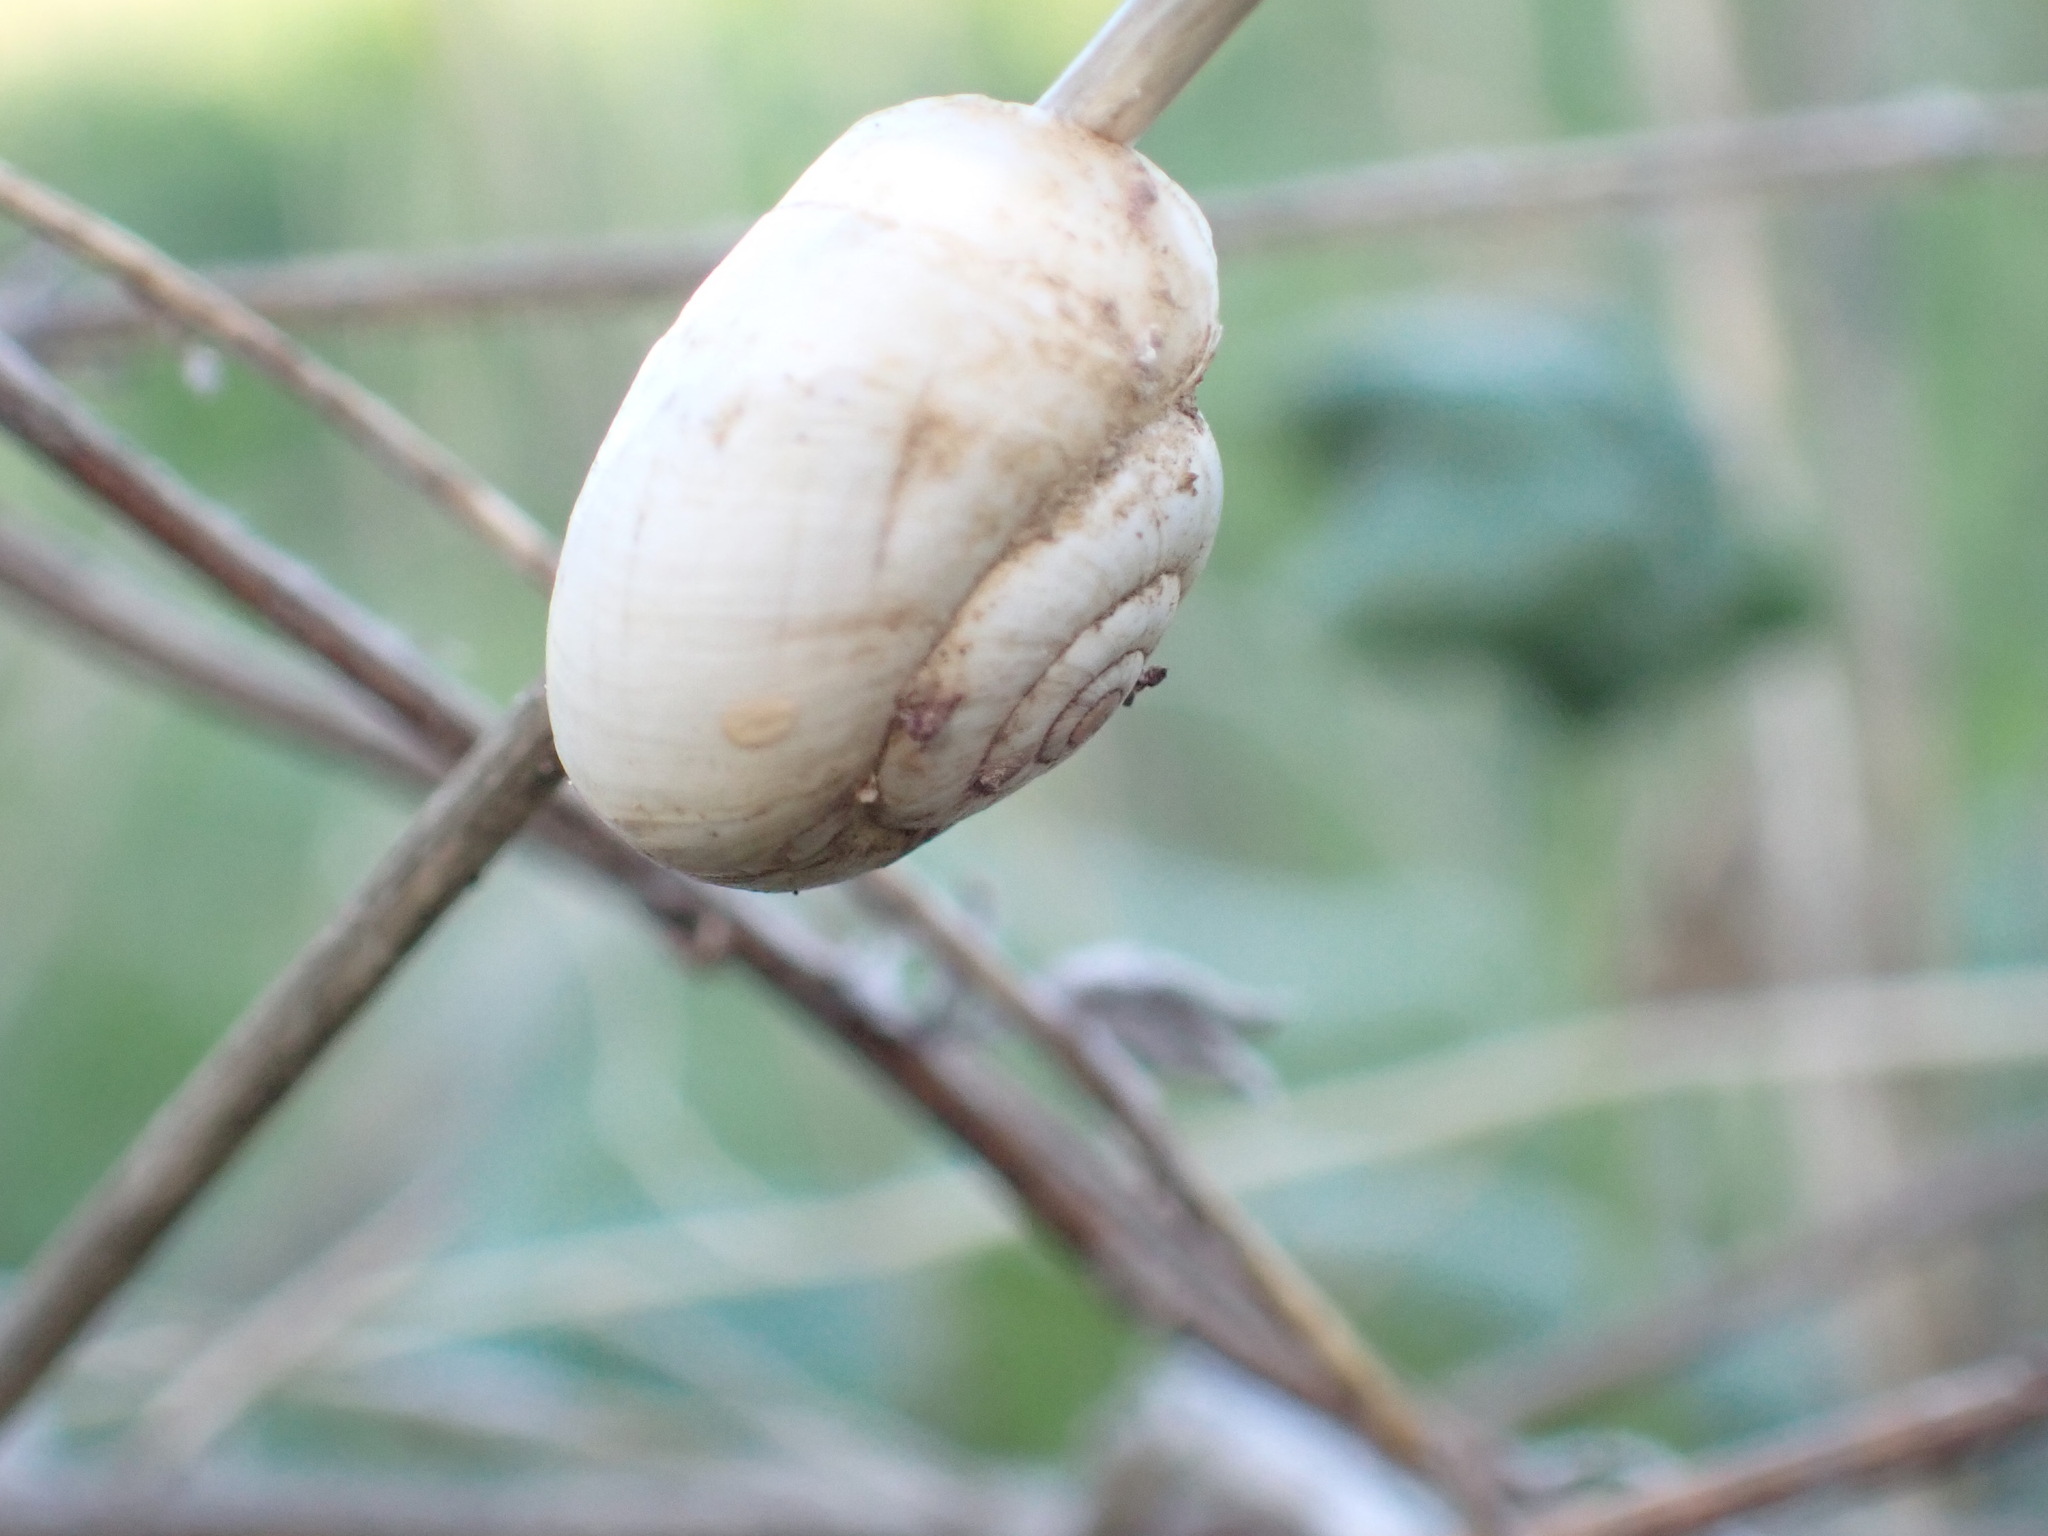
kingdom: Animalia
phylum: Mollusca
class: Gastropoda
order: Stylommatophora
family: Geomitridae
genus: Xeropicta
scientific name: Xeropicta derbentina
